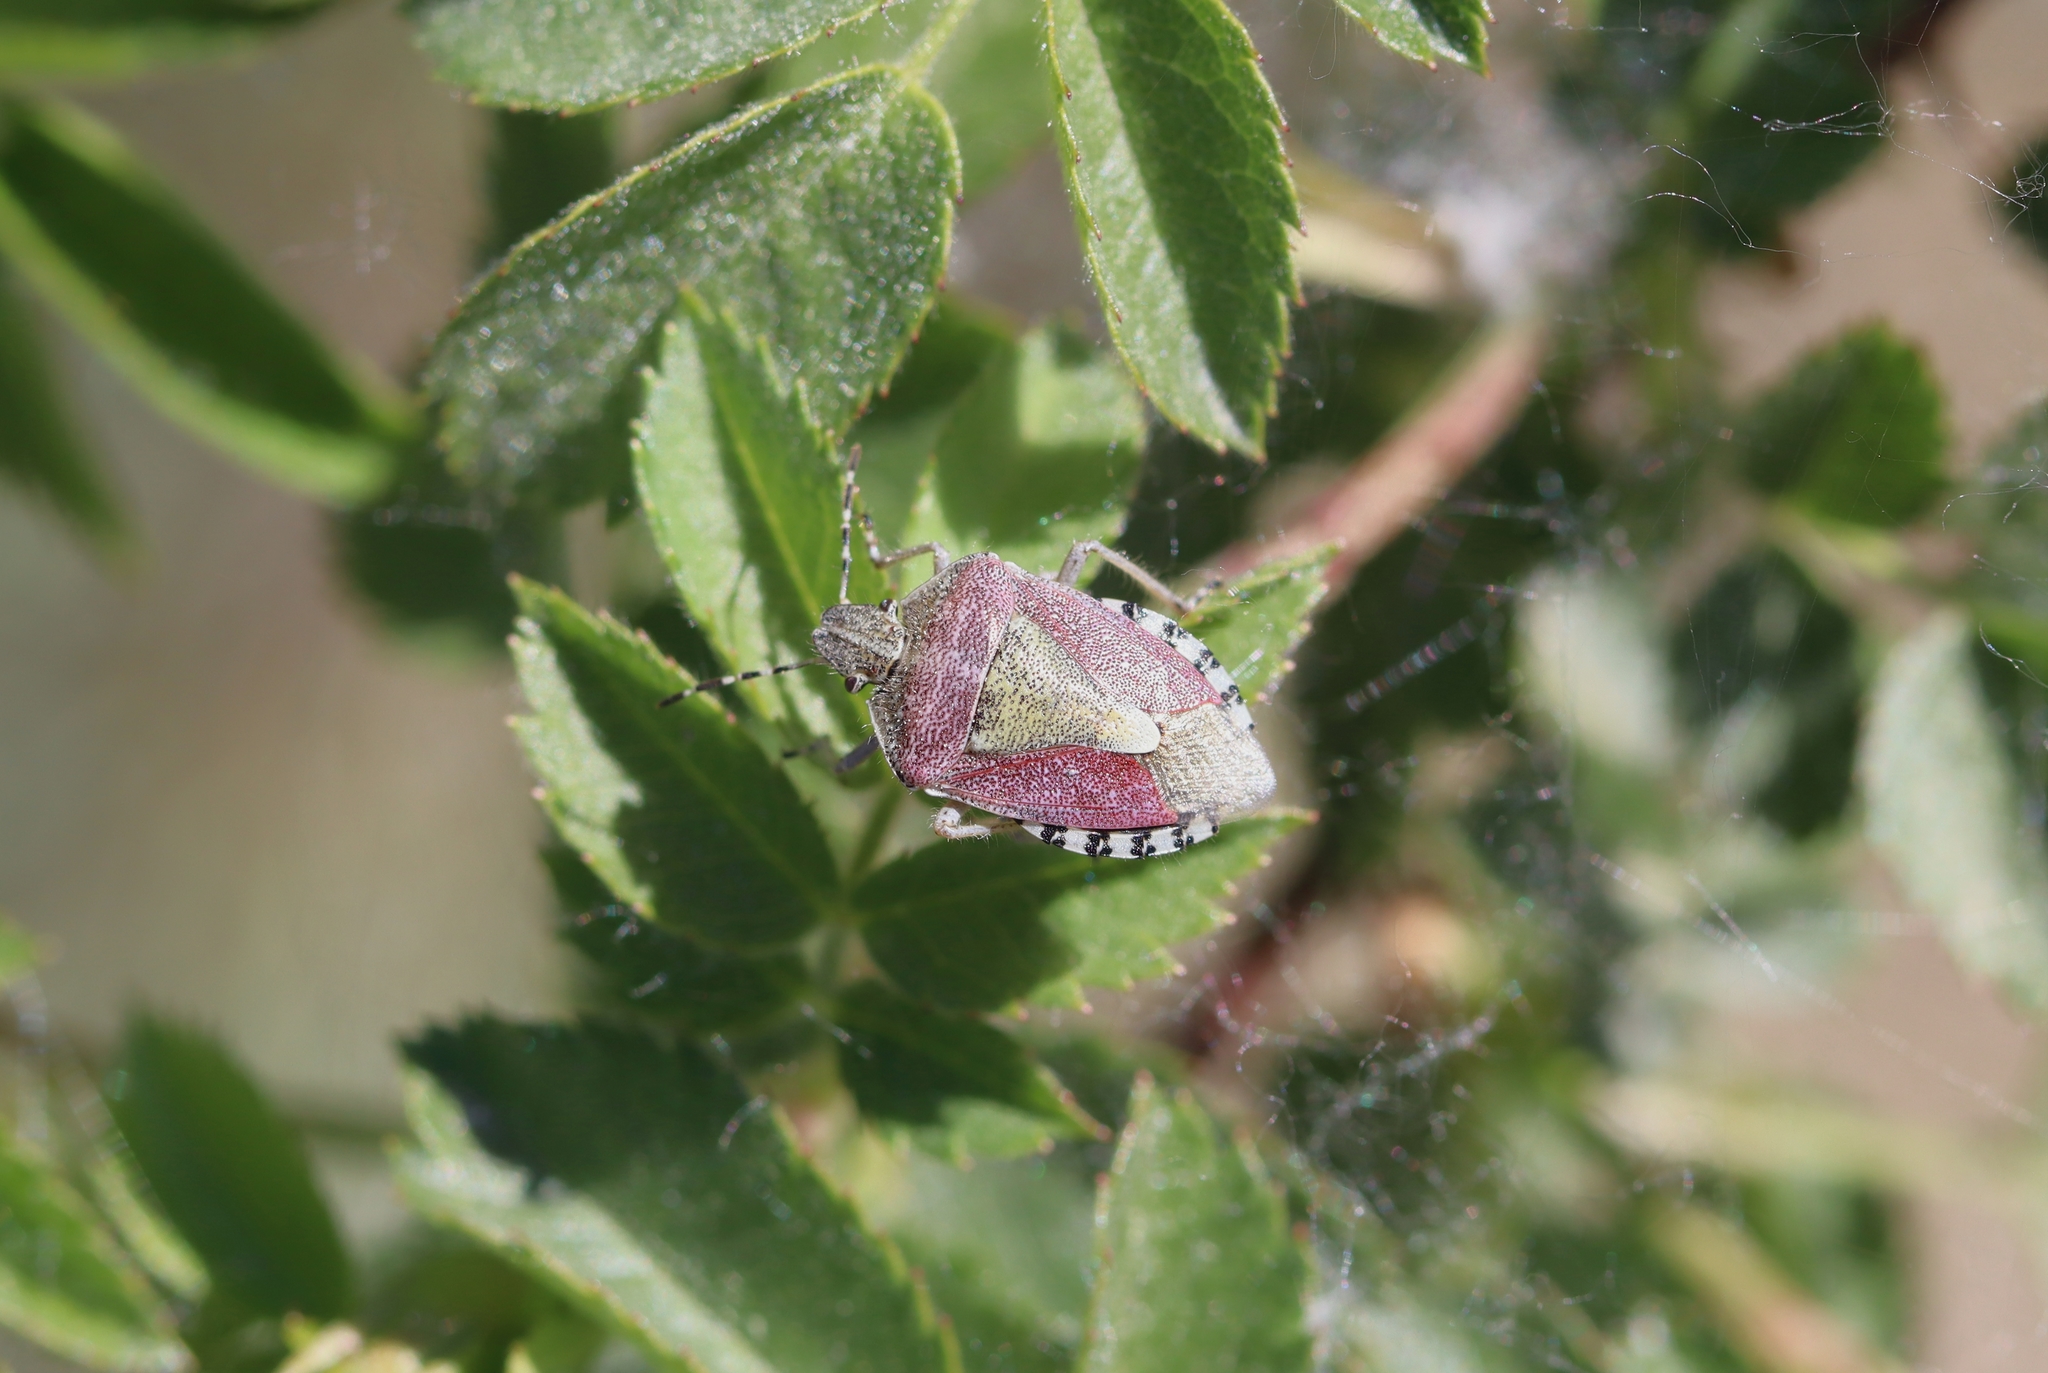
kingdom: Animalia
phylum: Arthropoda
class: Insecta
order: Hemiptera
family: Pentatomidae
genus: Dolycoris
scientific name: Dolycoris baccarum
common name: Sloe bug
